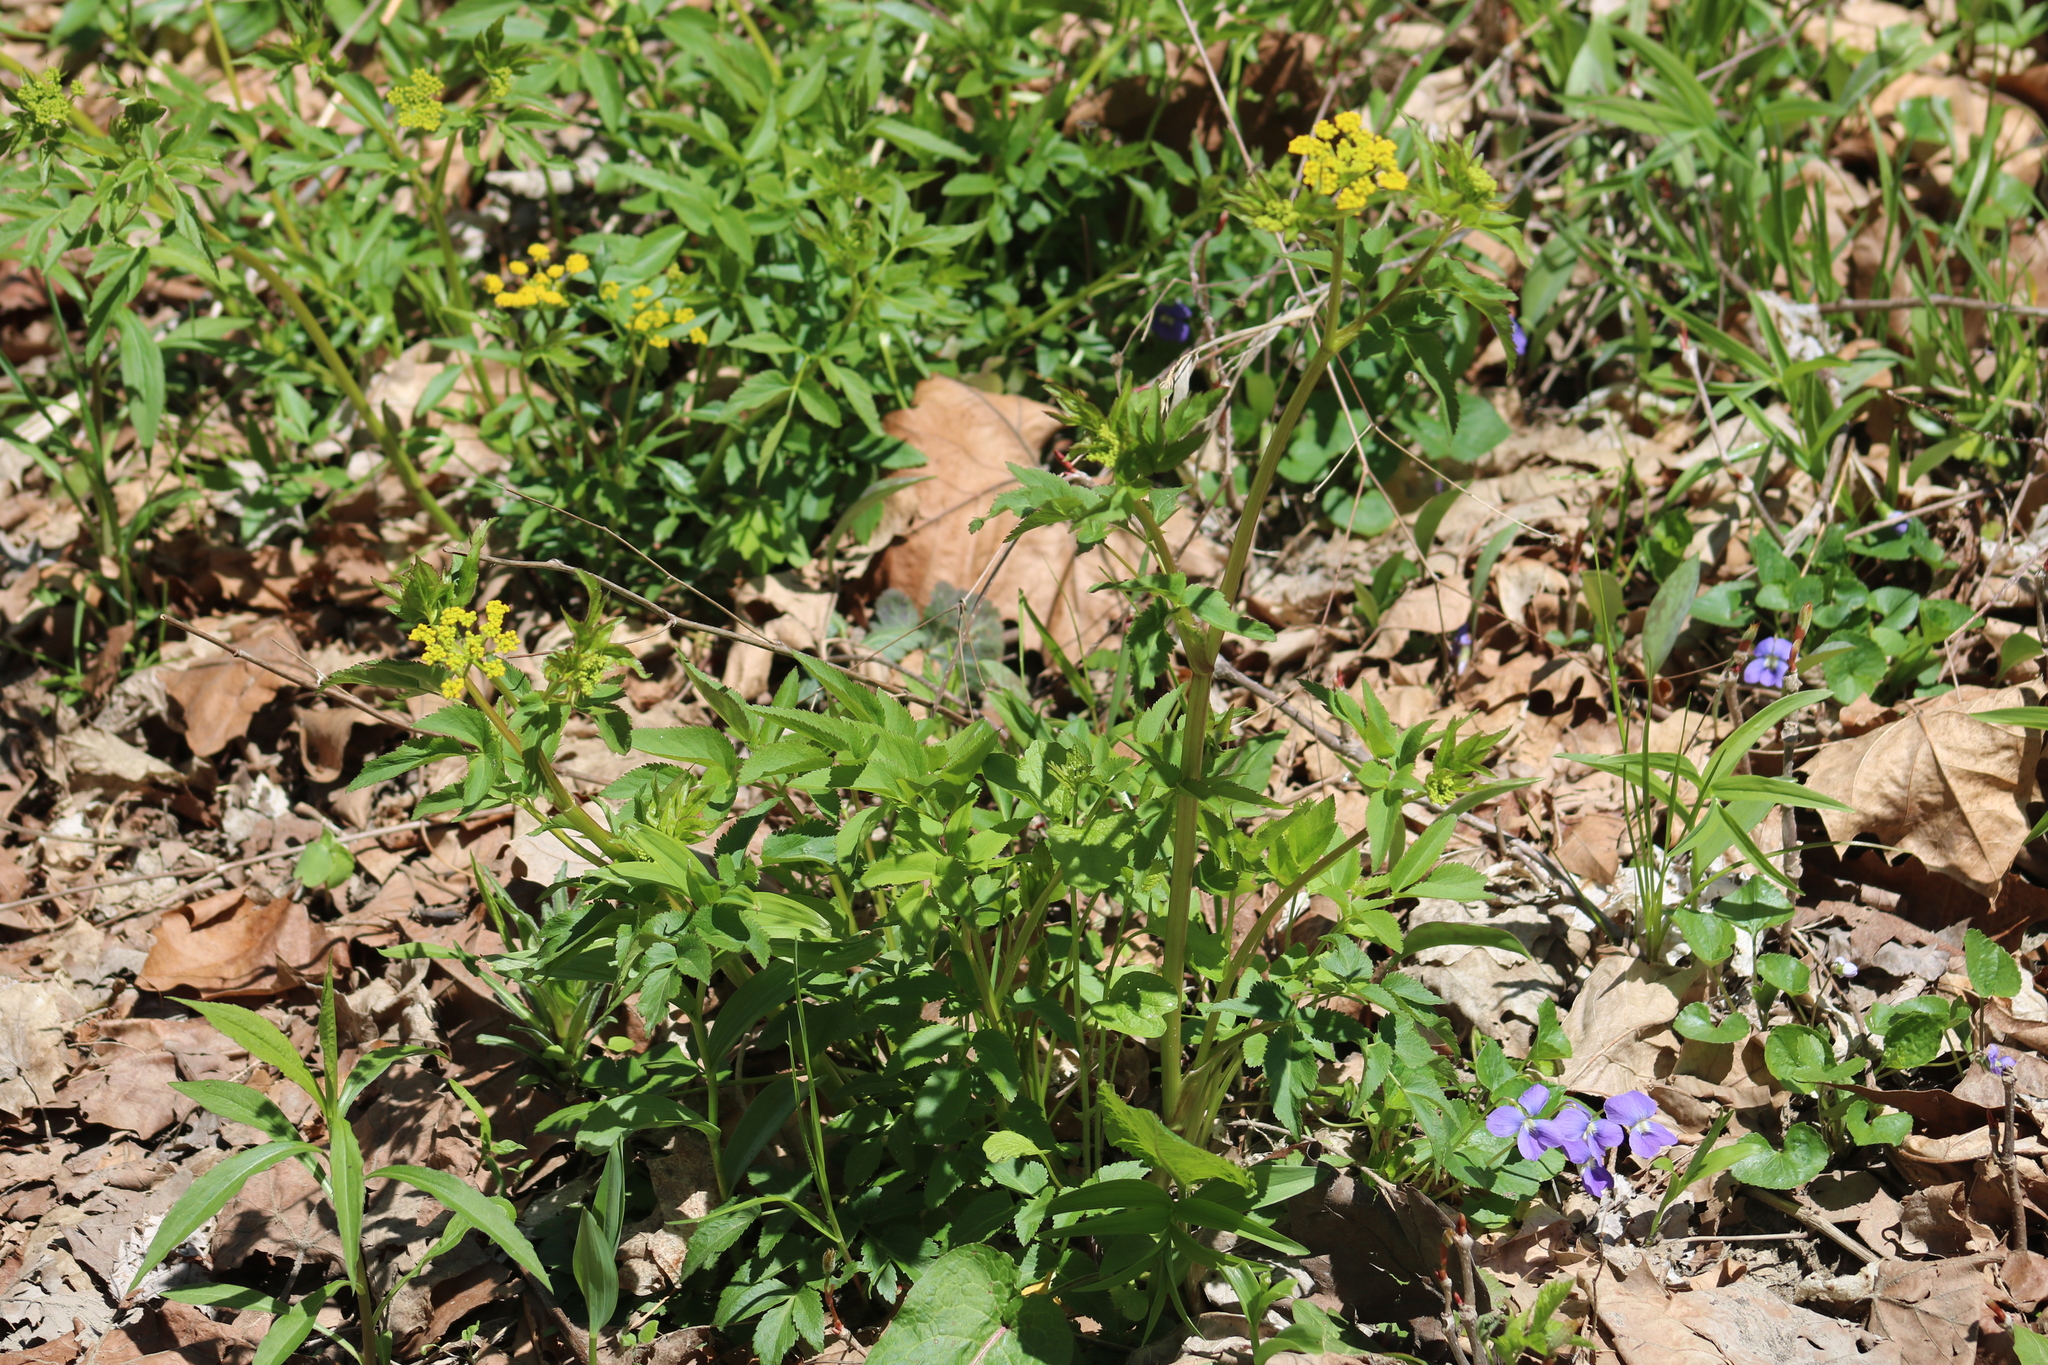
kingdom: Plantae
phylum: Tracheophyta
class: Magnoliopsida
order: Apiales
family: Apiaceae
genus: Zizia
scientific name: Zizia aurea
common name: Golden alexanders
